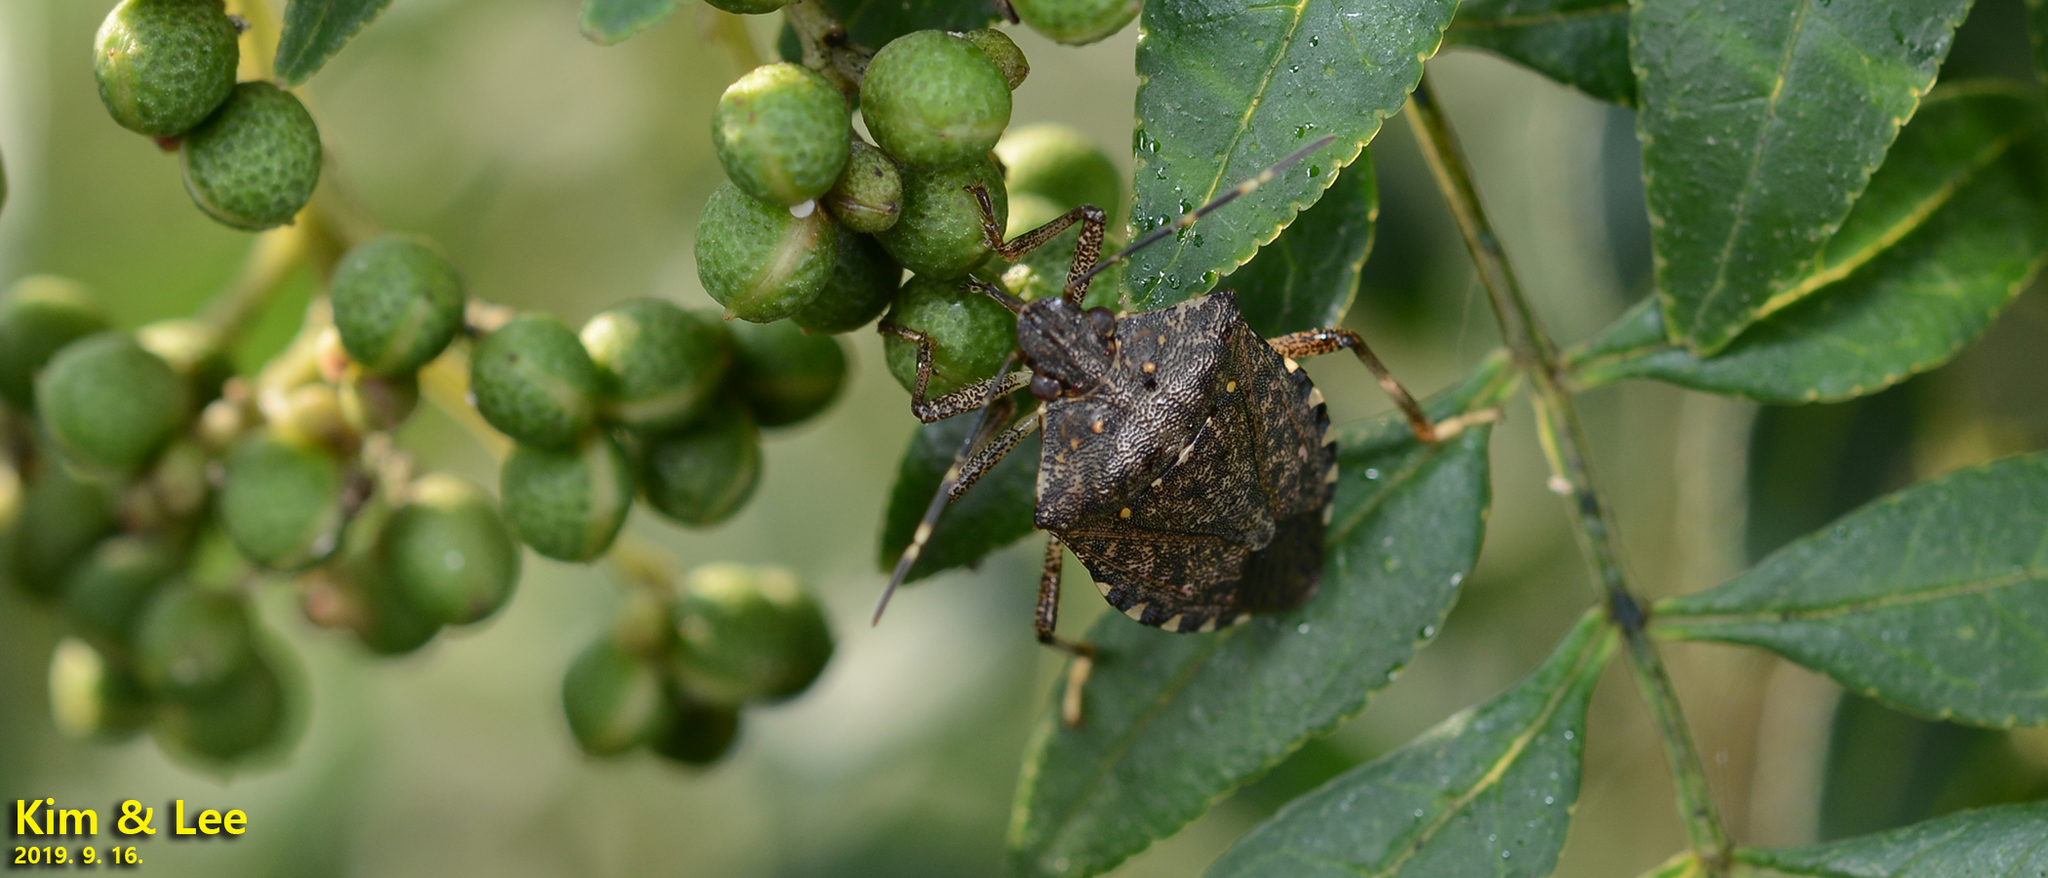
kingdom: Animalia
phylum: Arthropoda
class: Insecta
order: Hemiptera
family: Pentatomidae
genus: Halyomorpha
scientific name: Halyomorpha halys
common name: Brown marmorated stink bug
